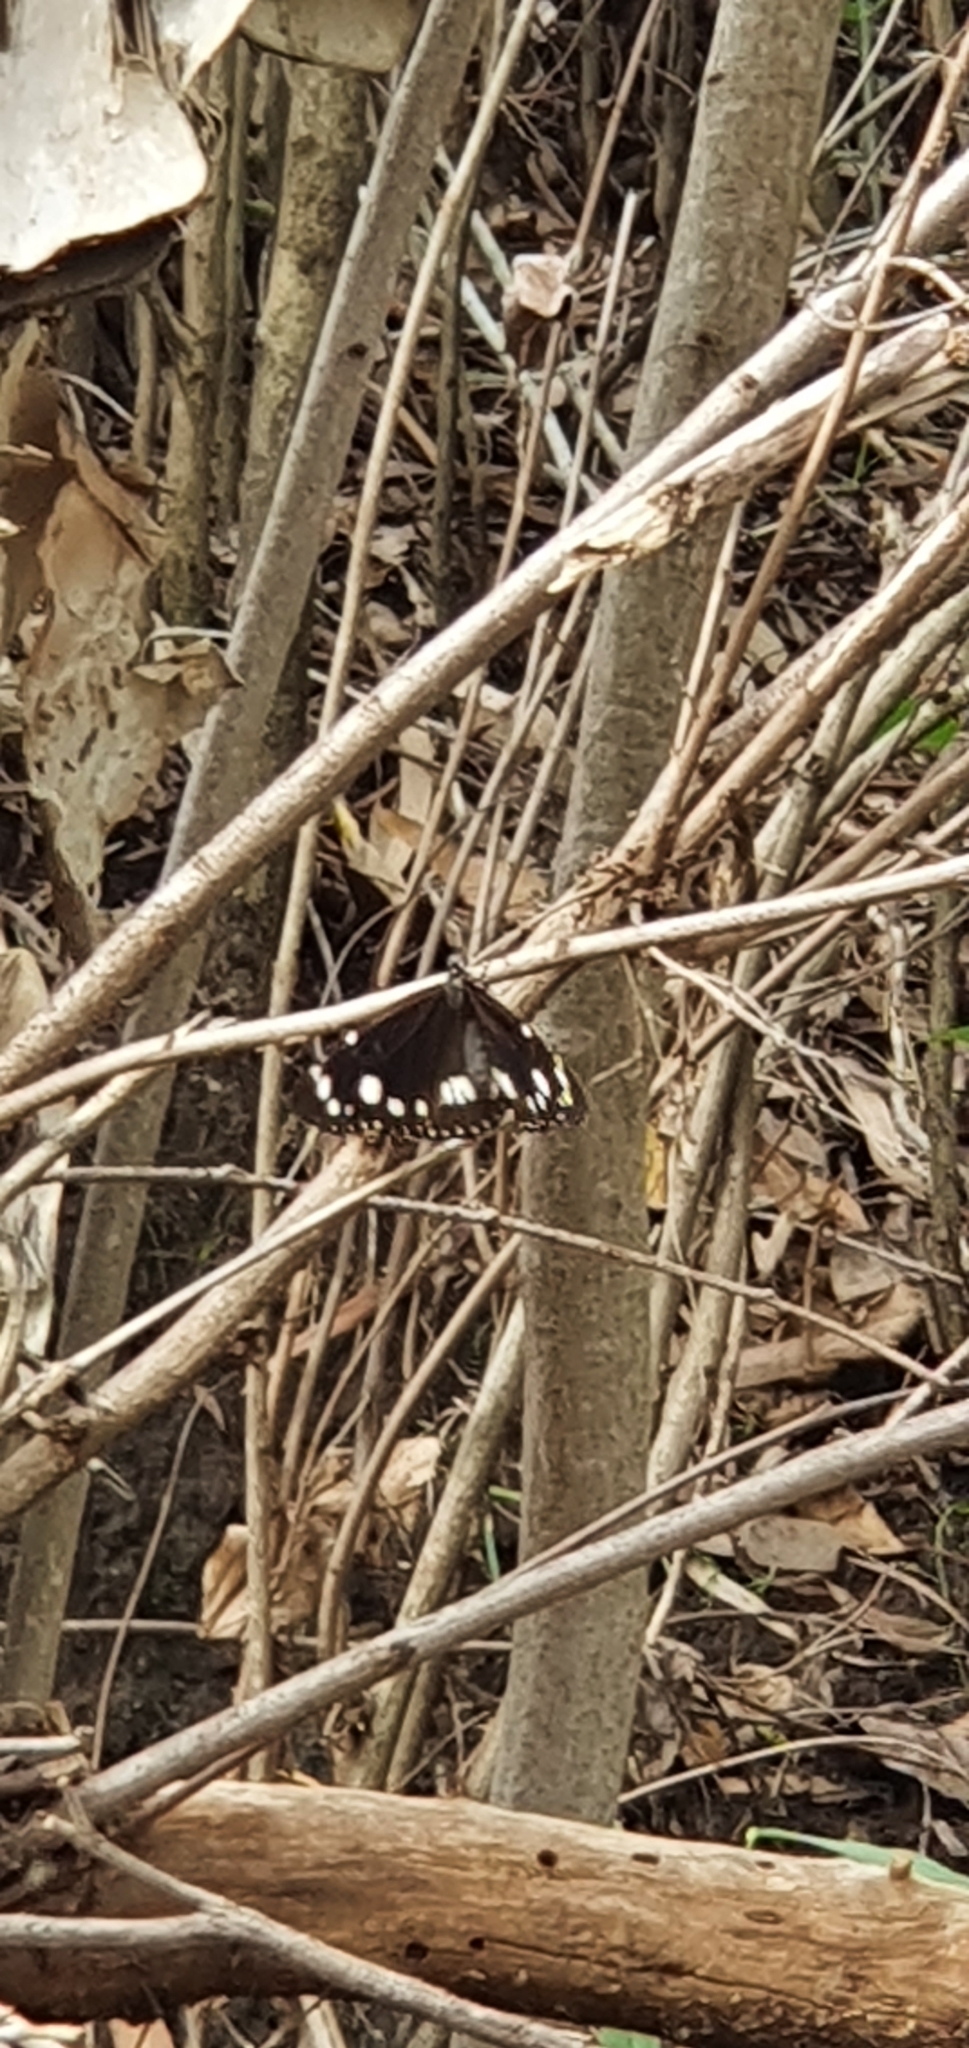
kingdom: Animalia
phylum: Arthropoda
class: Insecta
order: Lepidoptera
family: Nymphalidae
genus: Euploea
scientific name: Euploea core
